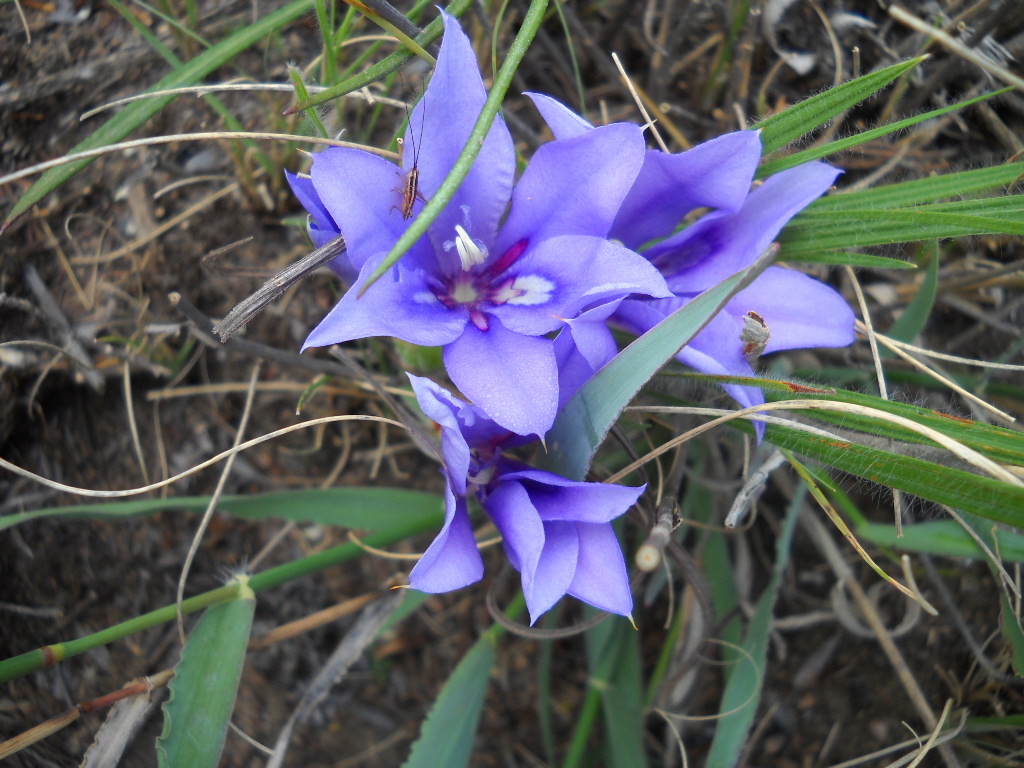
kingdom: Plantae
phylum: Tracheophyta
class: Liliopsida
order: Asparagales
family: Iridaceae
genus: Babiana
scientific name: Babiana sambucina
